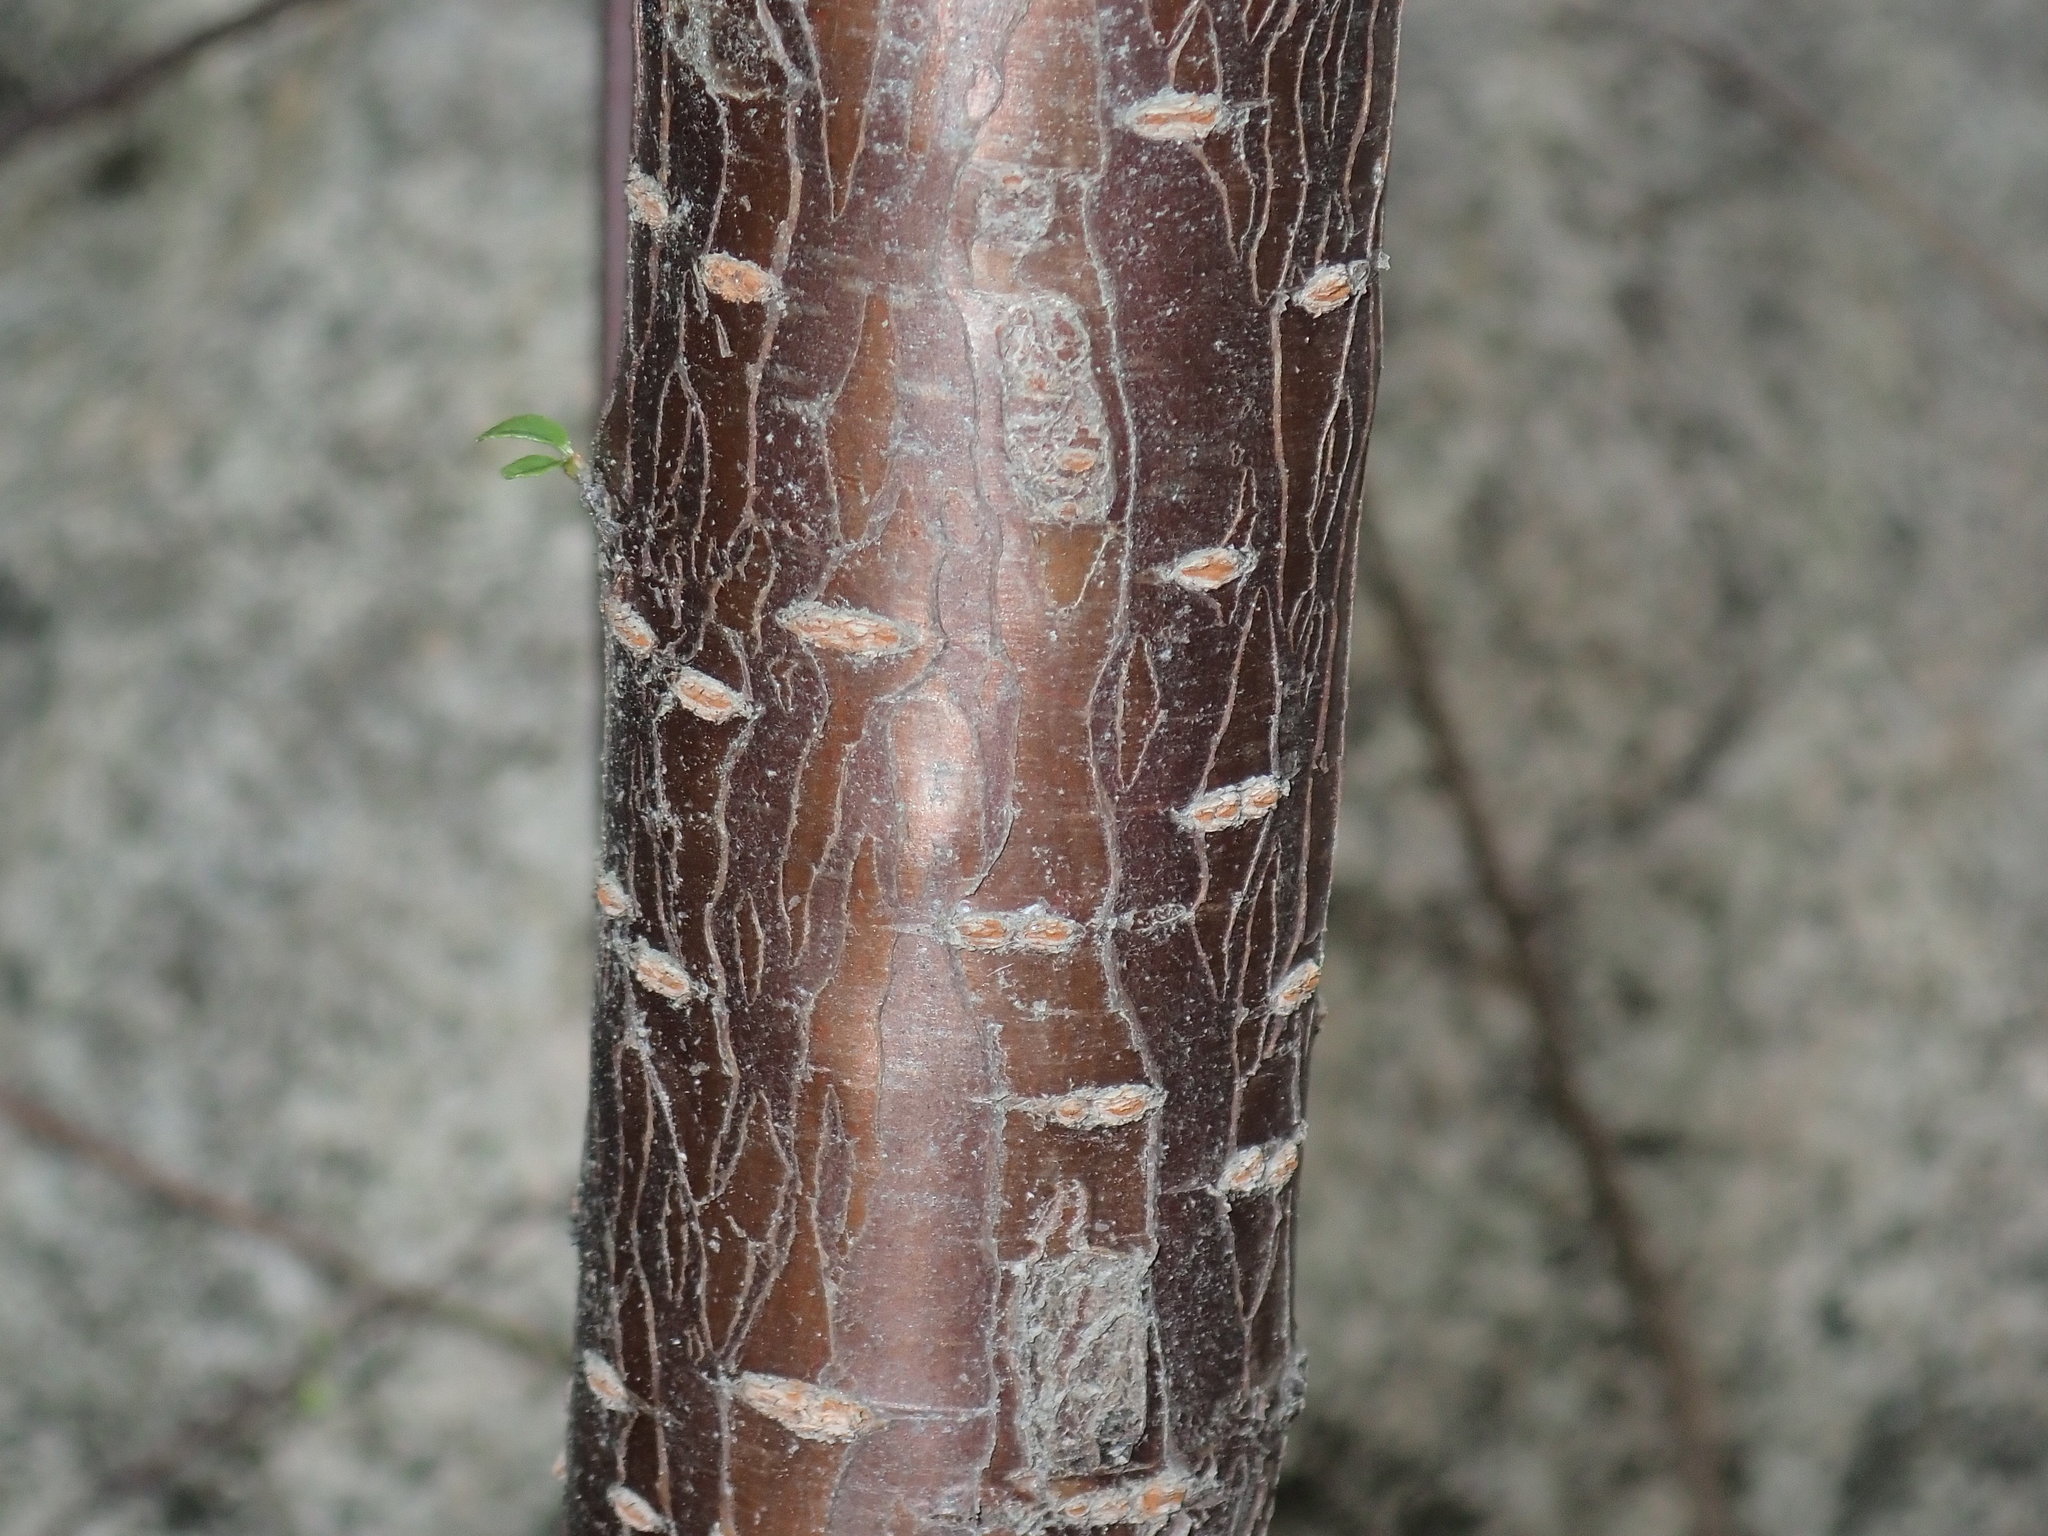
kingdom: Plantae
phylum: Tracheophyta
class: Magnoliopsida
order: Rosales
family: Rosaceae
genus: Prunus
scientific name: Prunus pensylvanica
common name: Pin cherry
